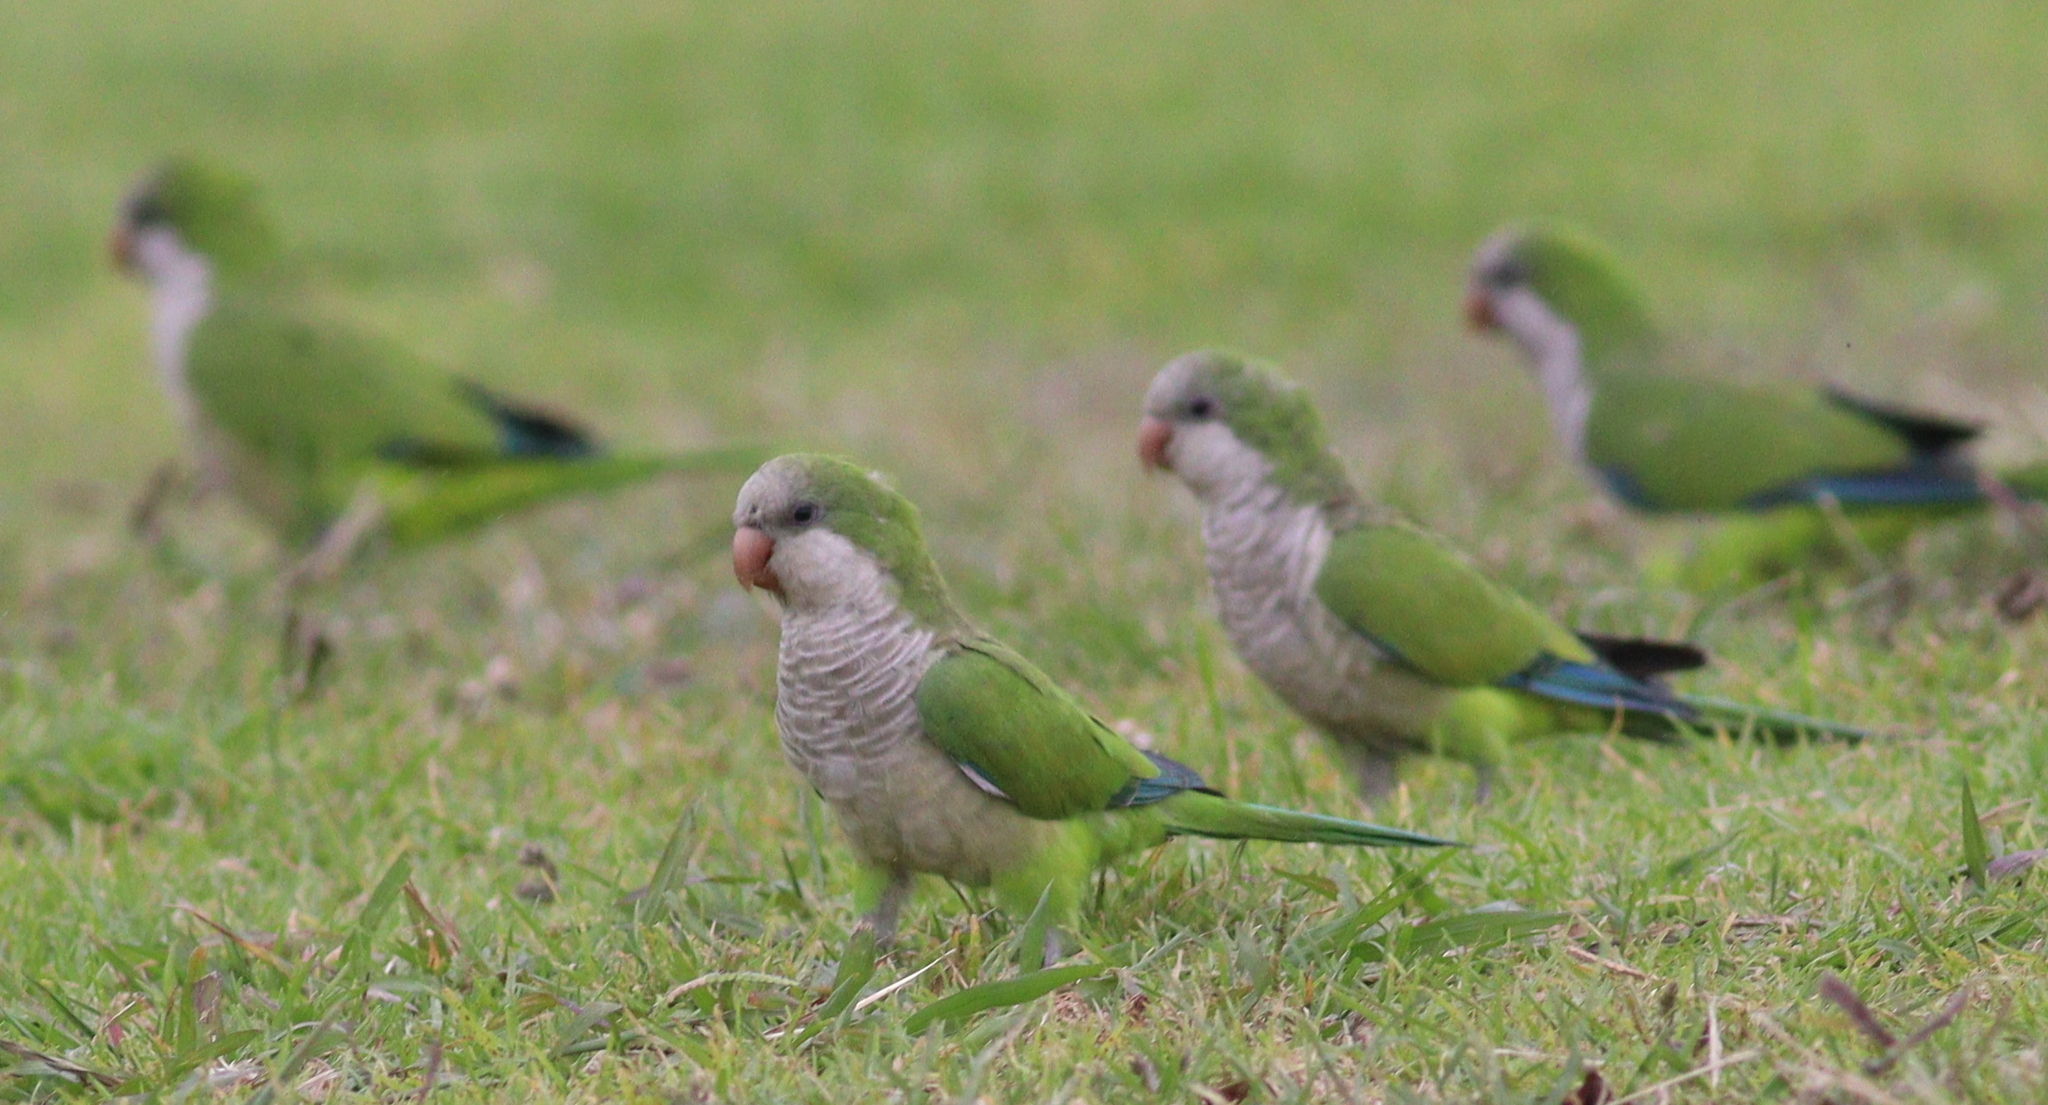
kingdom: Animalia
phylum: Chordata
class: Aves
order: Psittaciformes
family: Psittacidae
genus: Myiopsitta
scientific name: Myiopsitta monachus
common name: Monk parakeet
